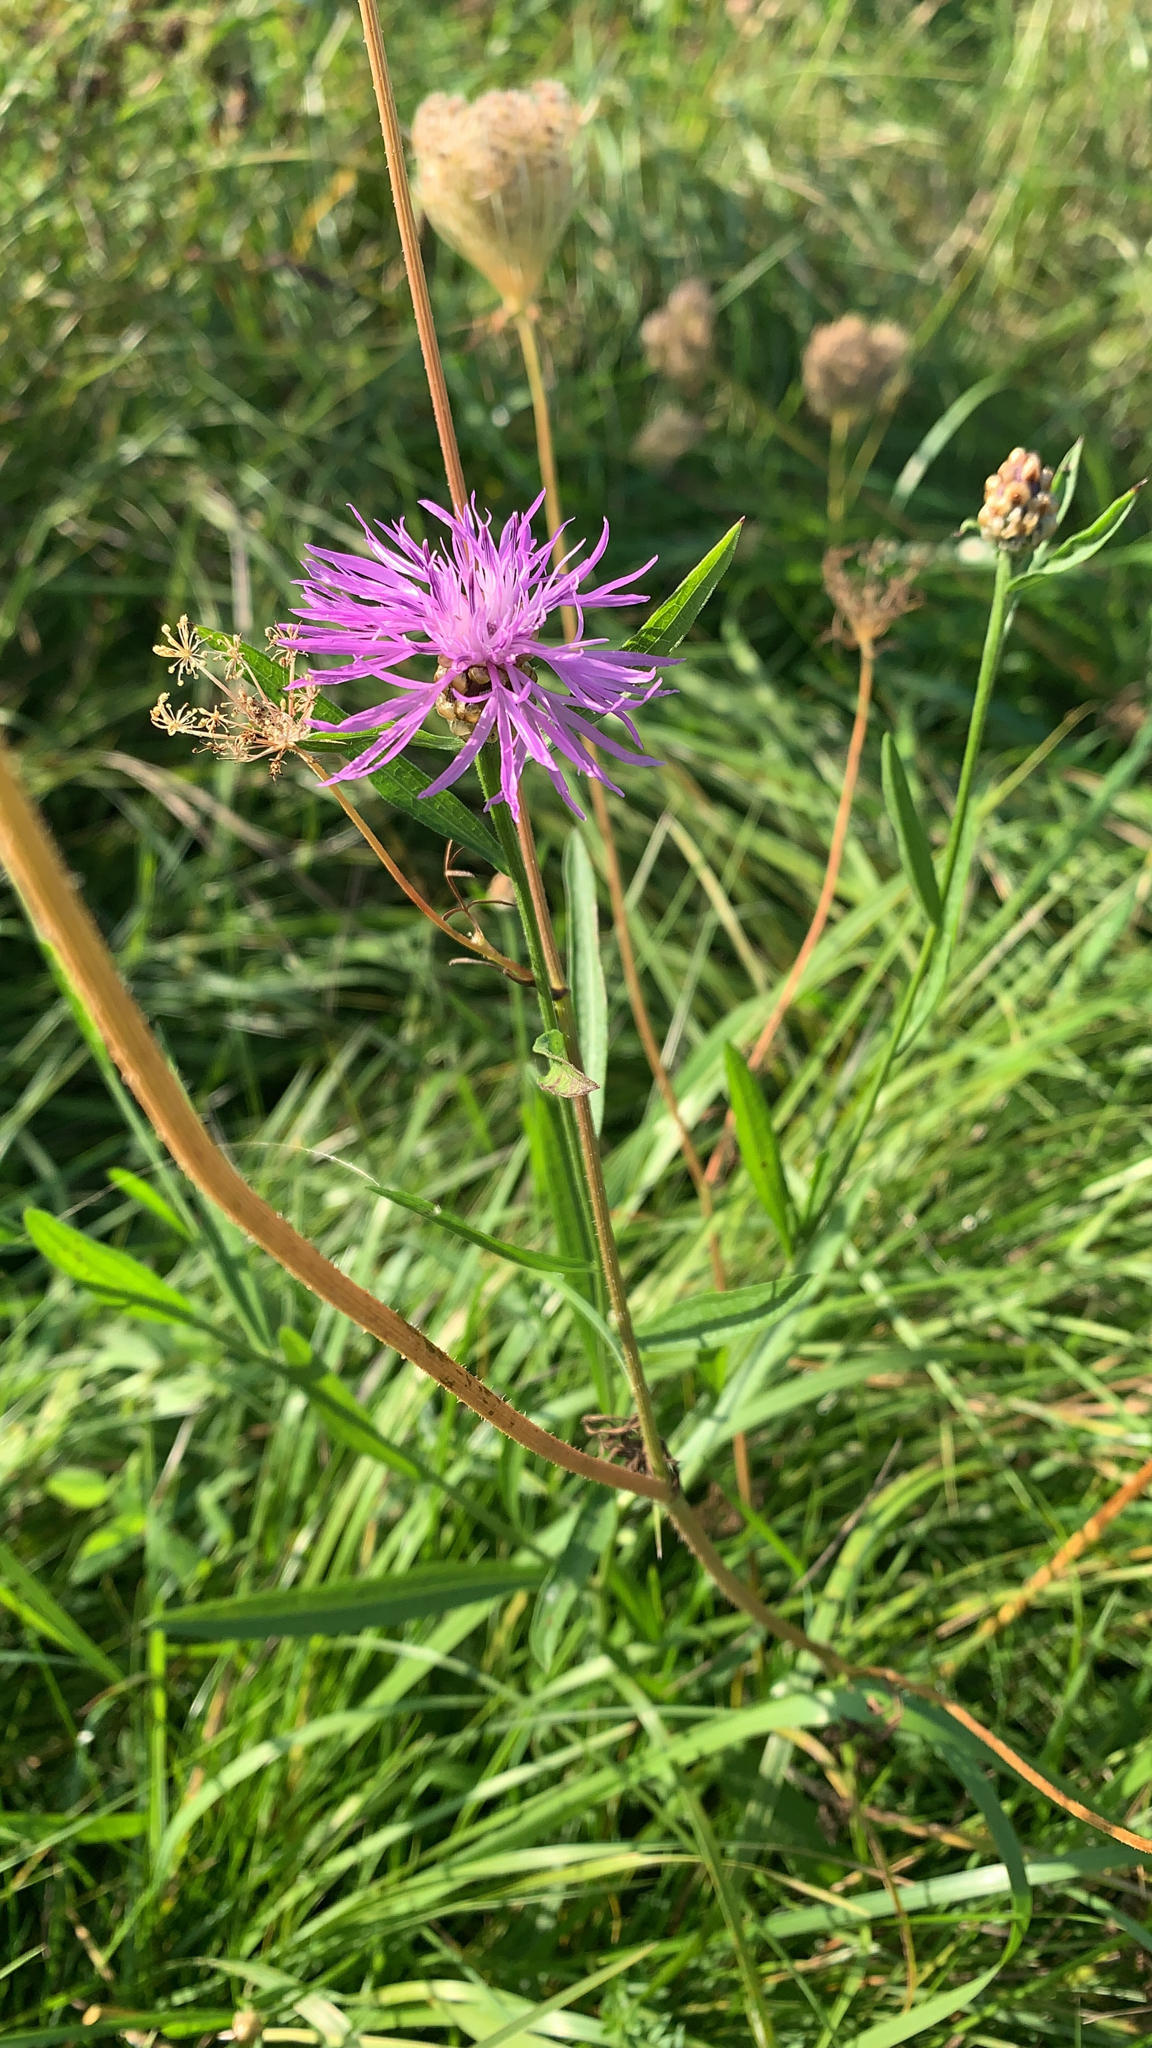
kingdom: Plantae
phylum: Tracheophyta
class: Magnoliopsida
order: Asterales
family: Asteraceae
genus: Centaurea
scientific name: Centaurea jacea
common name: Brown knapweed
